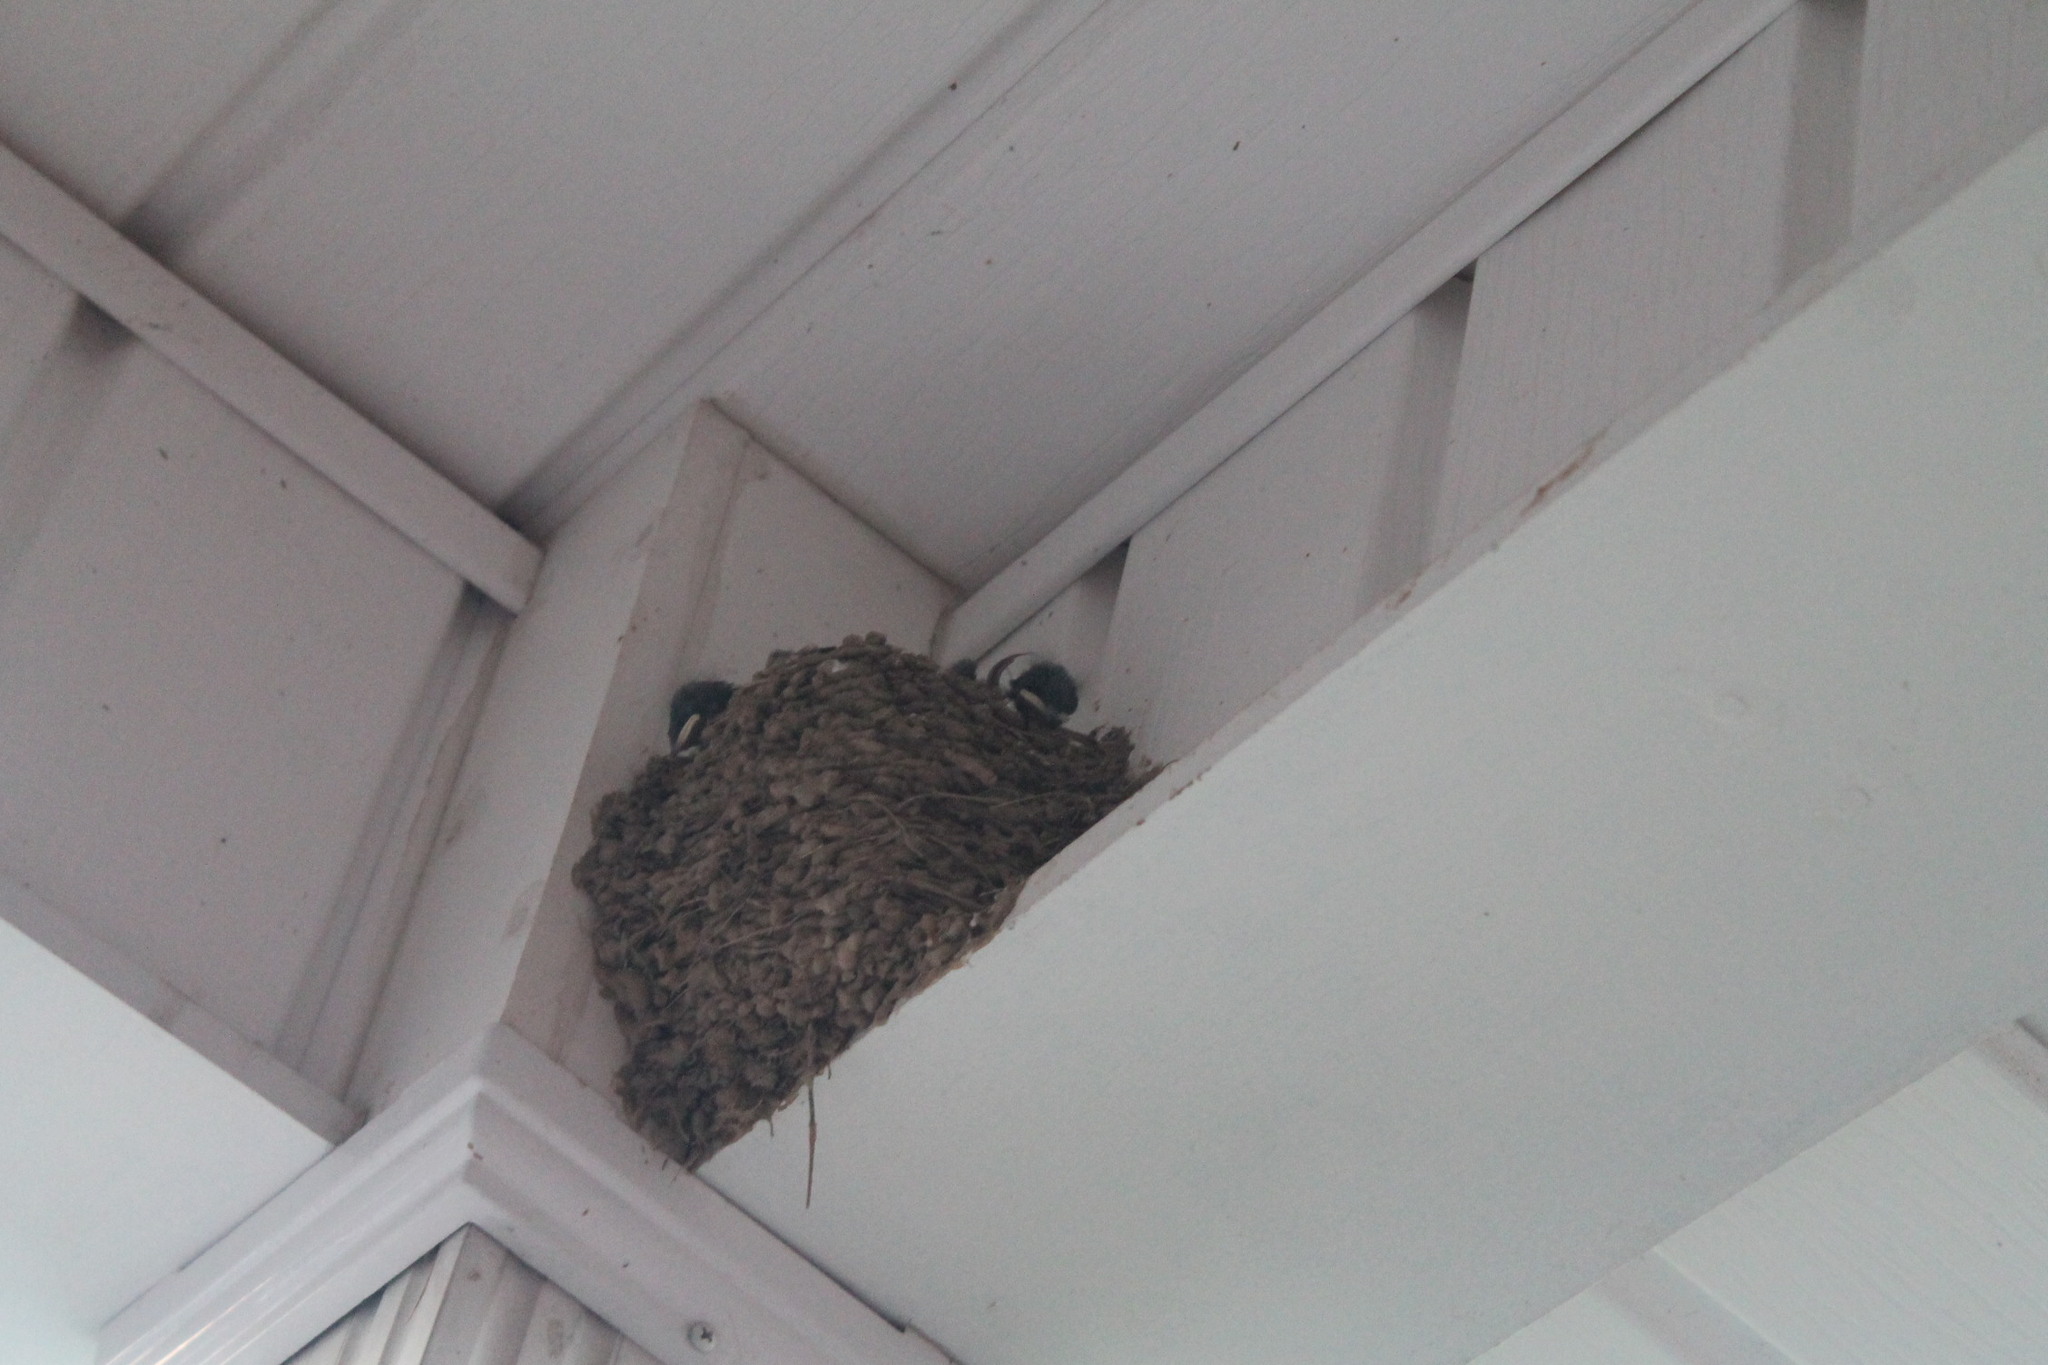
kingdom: Animalia
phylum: Chordata
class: Aves
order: Passeriformes
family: Hirundinidae
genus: Hirundo
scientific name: Hirundo rustica
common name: Barn swallow
